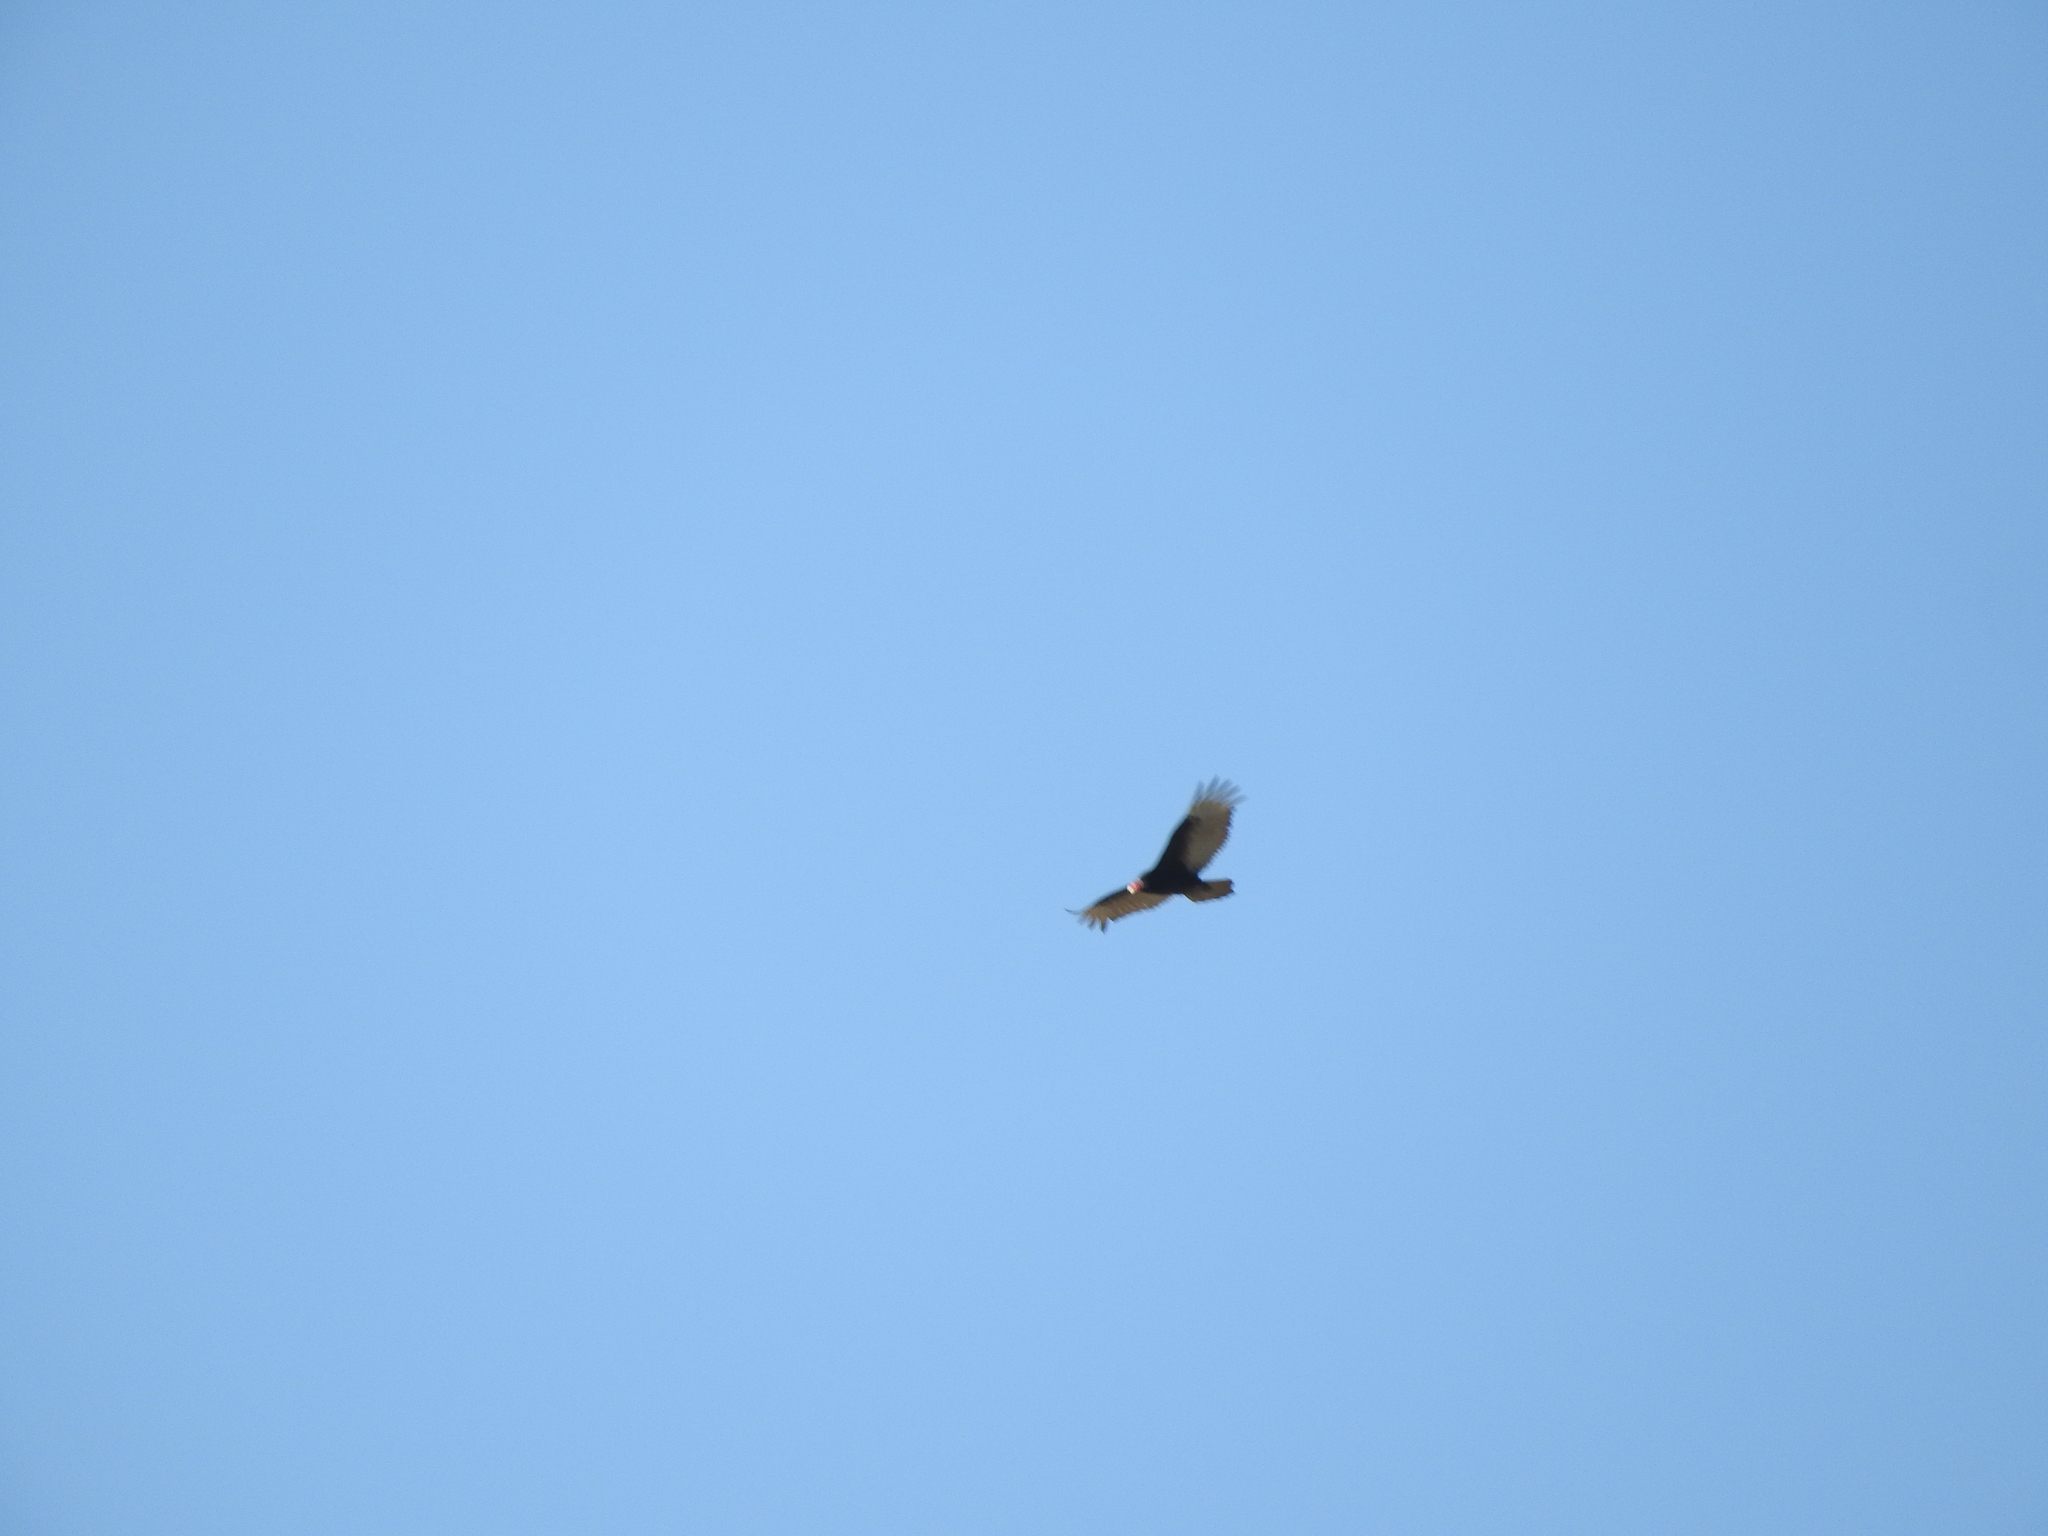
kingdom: Animalia
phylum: Chordata
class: Aves
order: Accipitriformes
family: Cathartidae
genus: Cathartes
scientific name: Cathartes aura
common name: Turkey vulture
